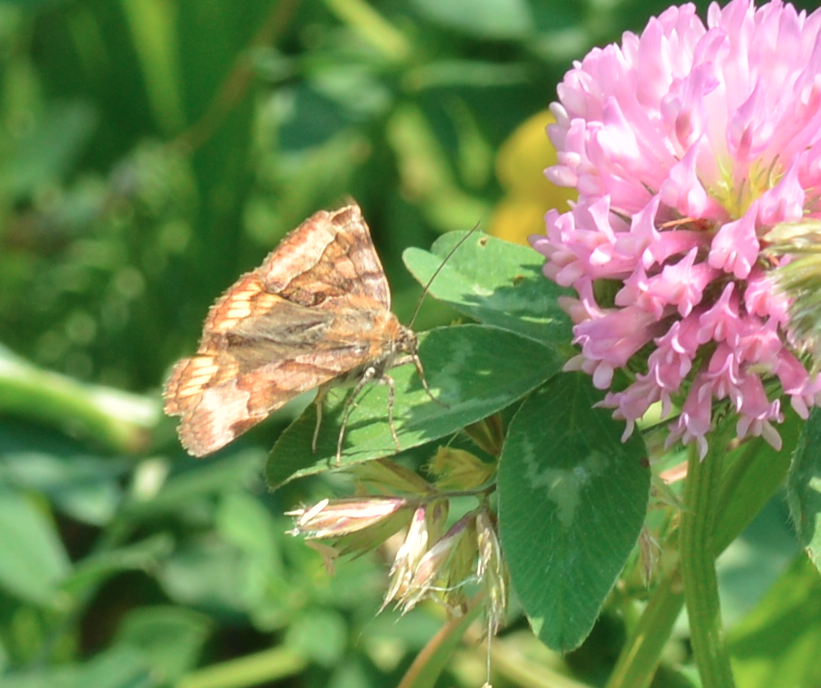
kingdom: Animalia
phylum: Arthropoda
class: Insecta
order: Lepidoptera
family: Erebidae
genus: Euclidia
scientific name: Euclidia glyphica
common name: Burnet companion
